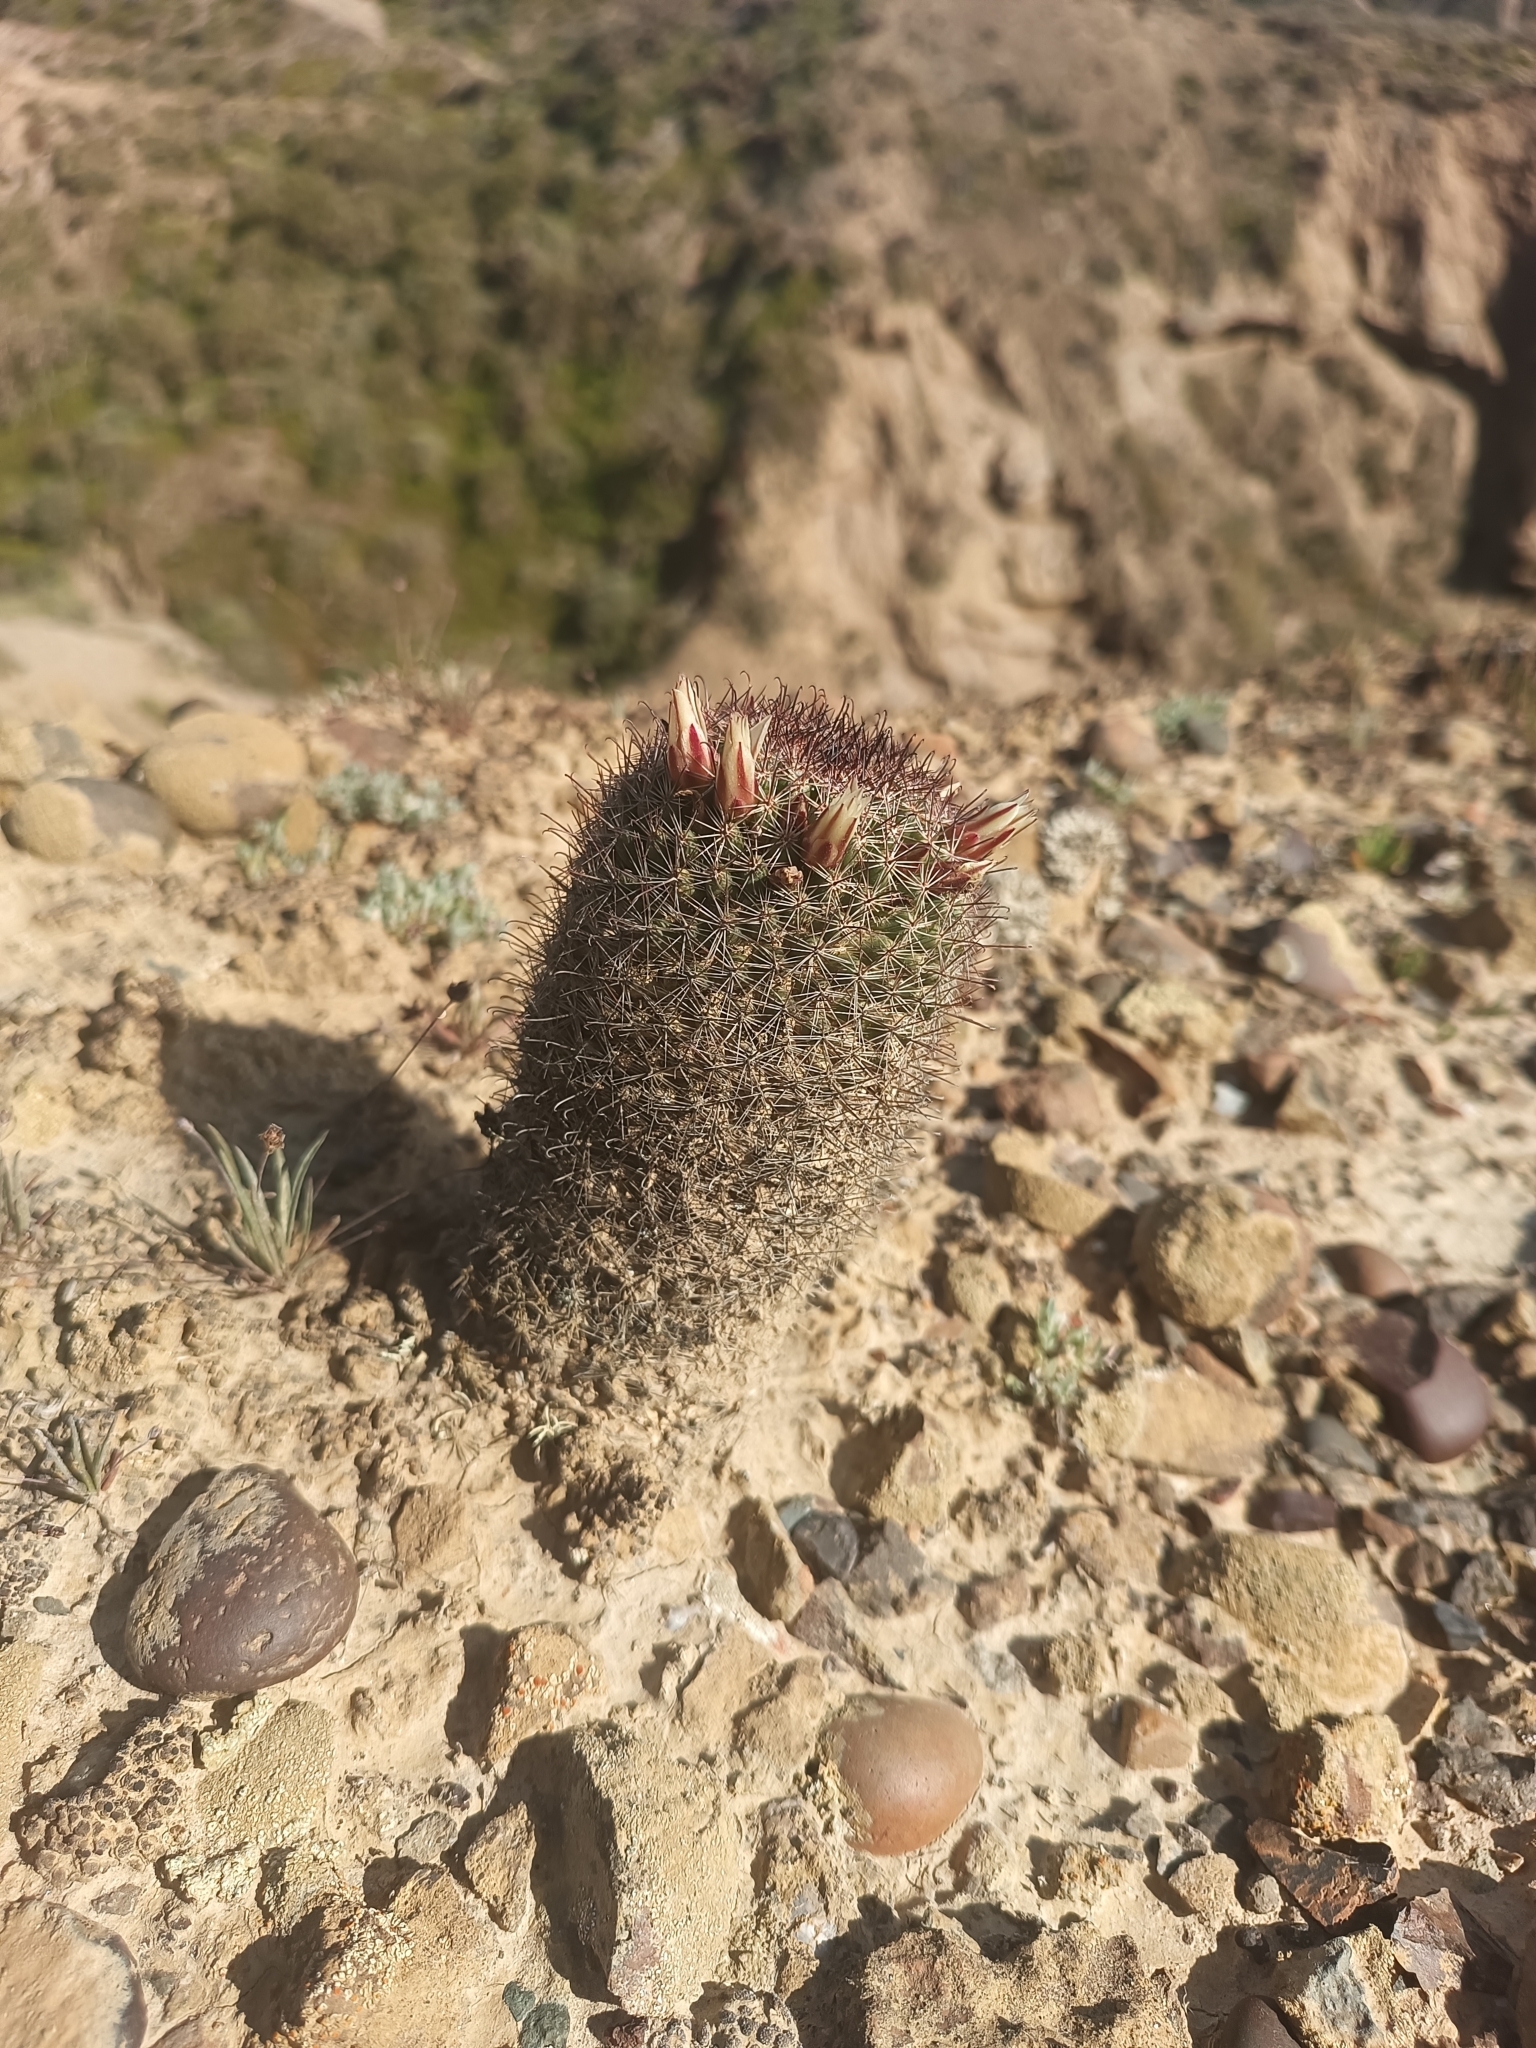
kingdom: Plantae
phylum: Tracheophyta
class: Magnoliopsida
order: Caryophyllales
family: Cactaceae
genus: Cochemiea
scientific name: Cochemiea dioica
